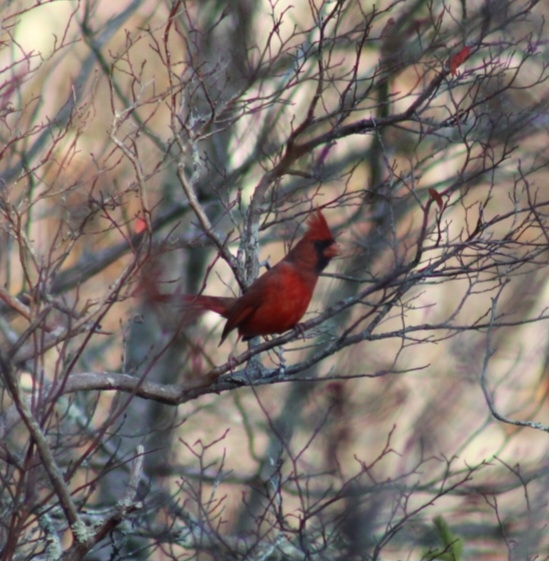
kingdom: Animalia
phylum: Chordata
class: Aves
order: Passeriformes
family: Cardinalidae
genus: Cardinalis
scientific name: Cardinalis cardinalis
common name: Northern cardinal
